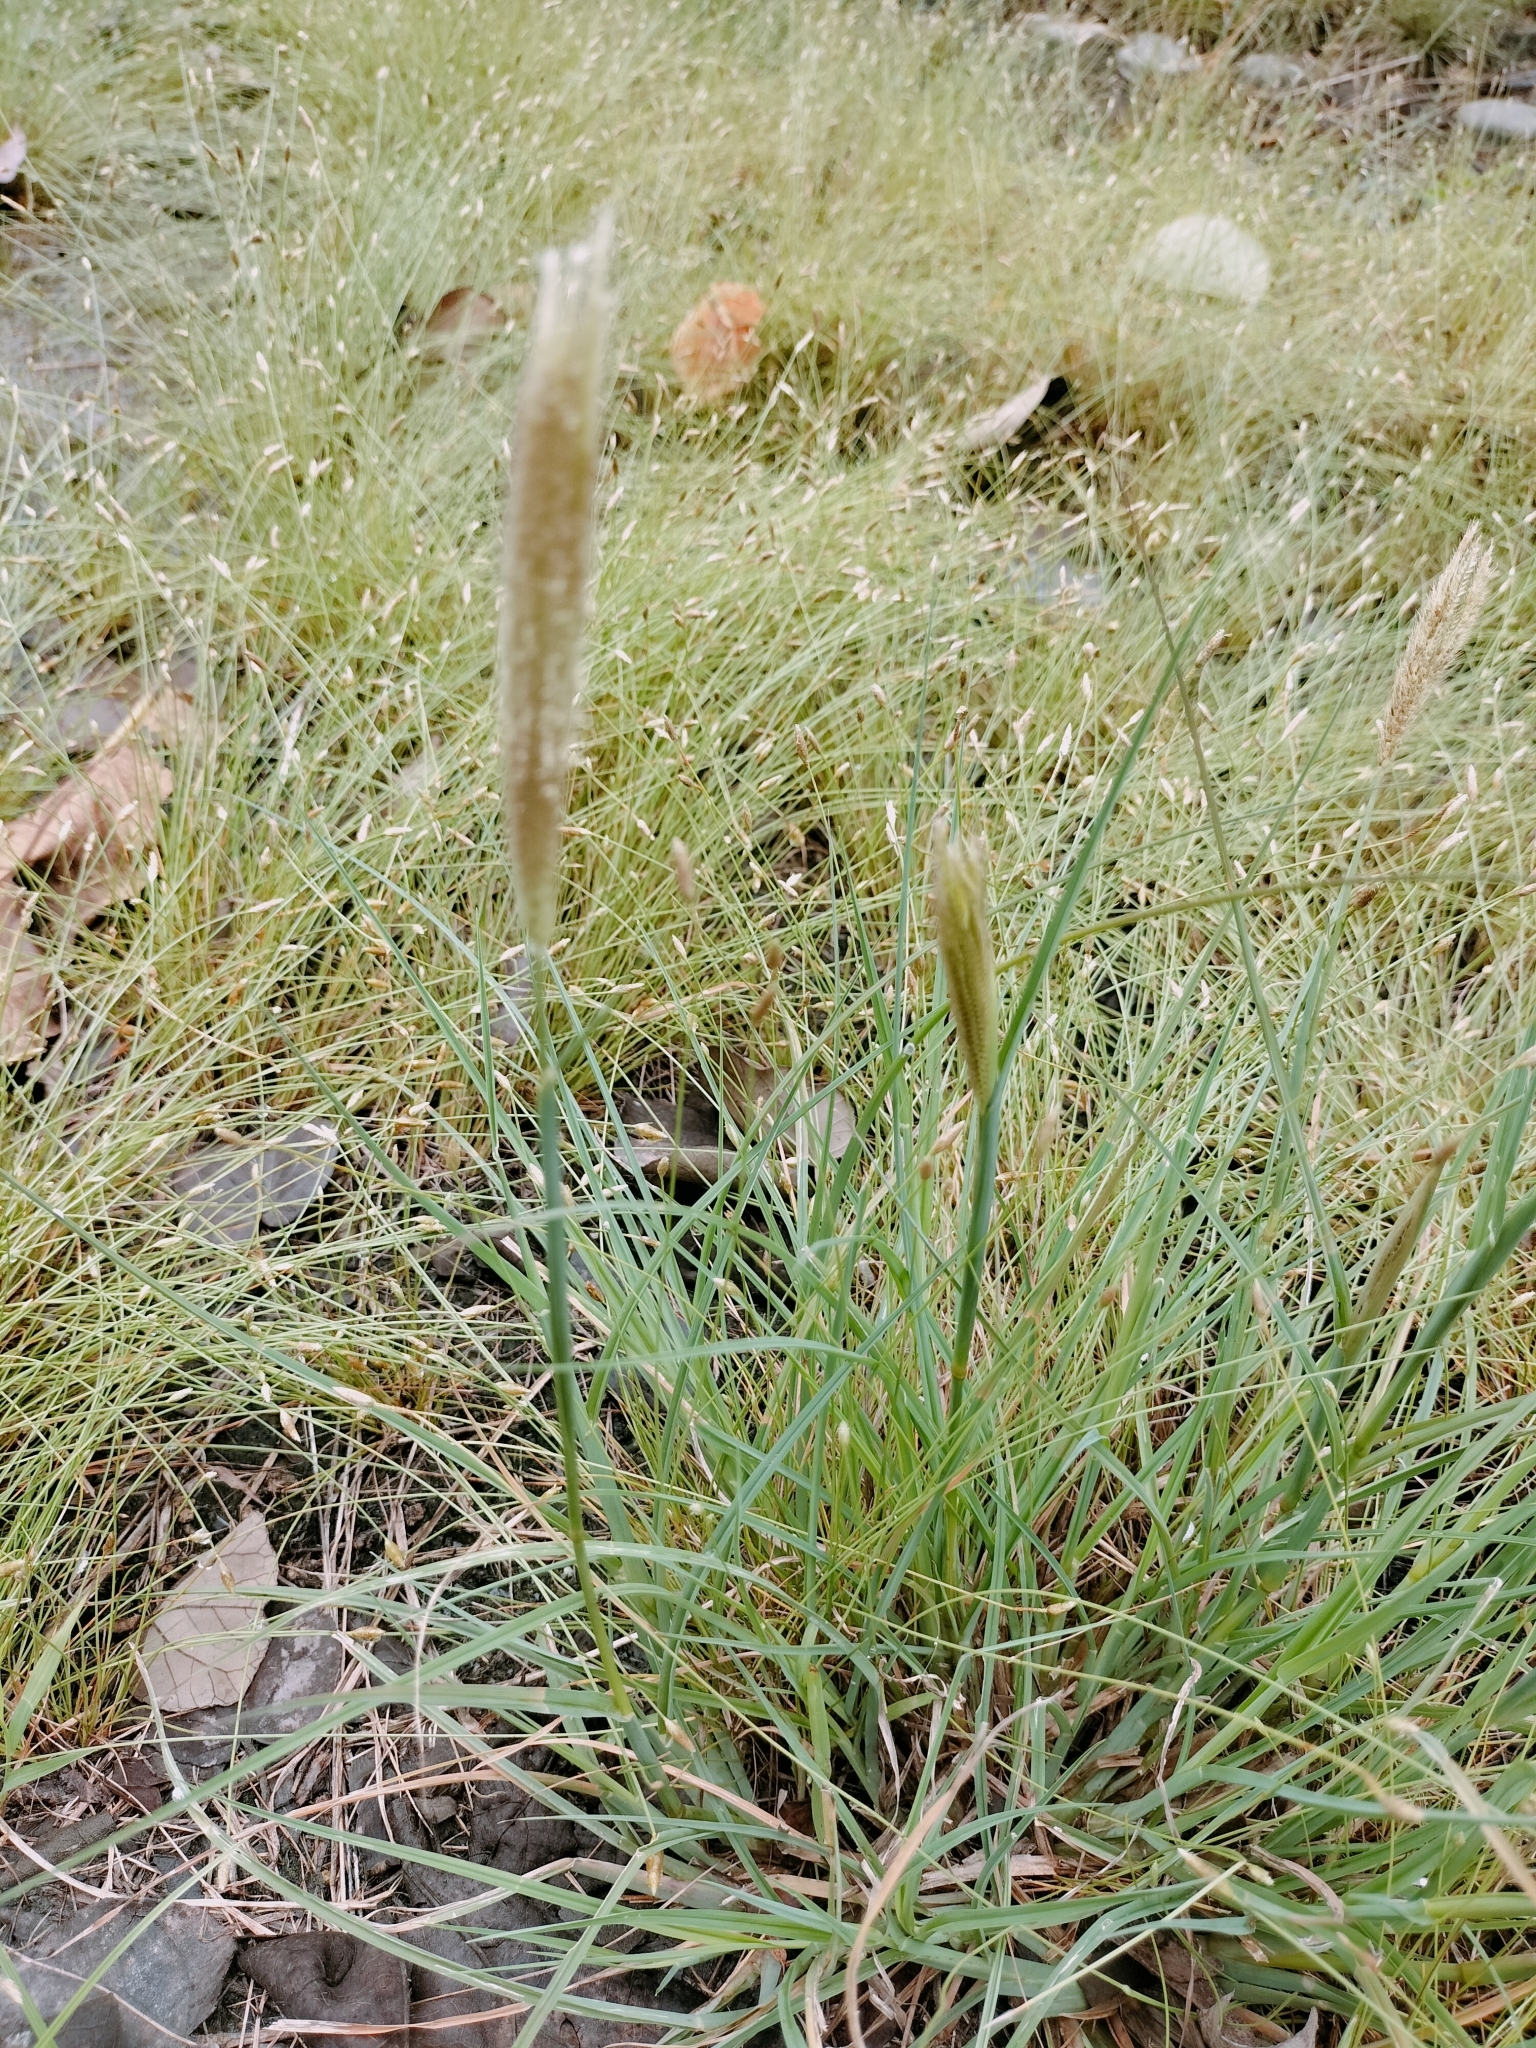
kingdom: Plantae
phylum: Tracheophyta
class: Liliopsida
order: Poales
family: Poaceae
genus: Chloris
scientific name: Chloris formosana
